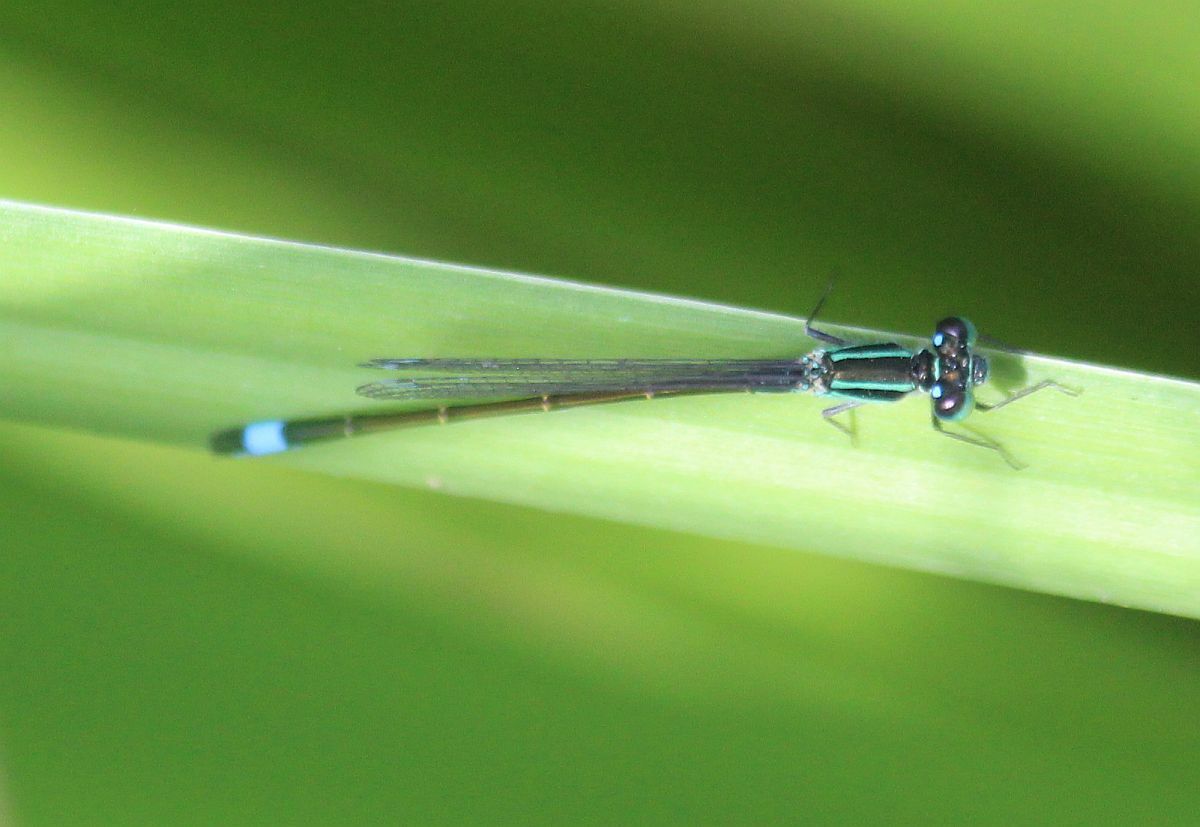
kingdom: Animalia
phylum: Arthropoda
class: Insecta
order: Odonata
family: Coenagrionidae
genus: Ischnura
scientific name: Ischnura elegans
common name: Blue-tailed damselfly
